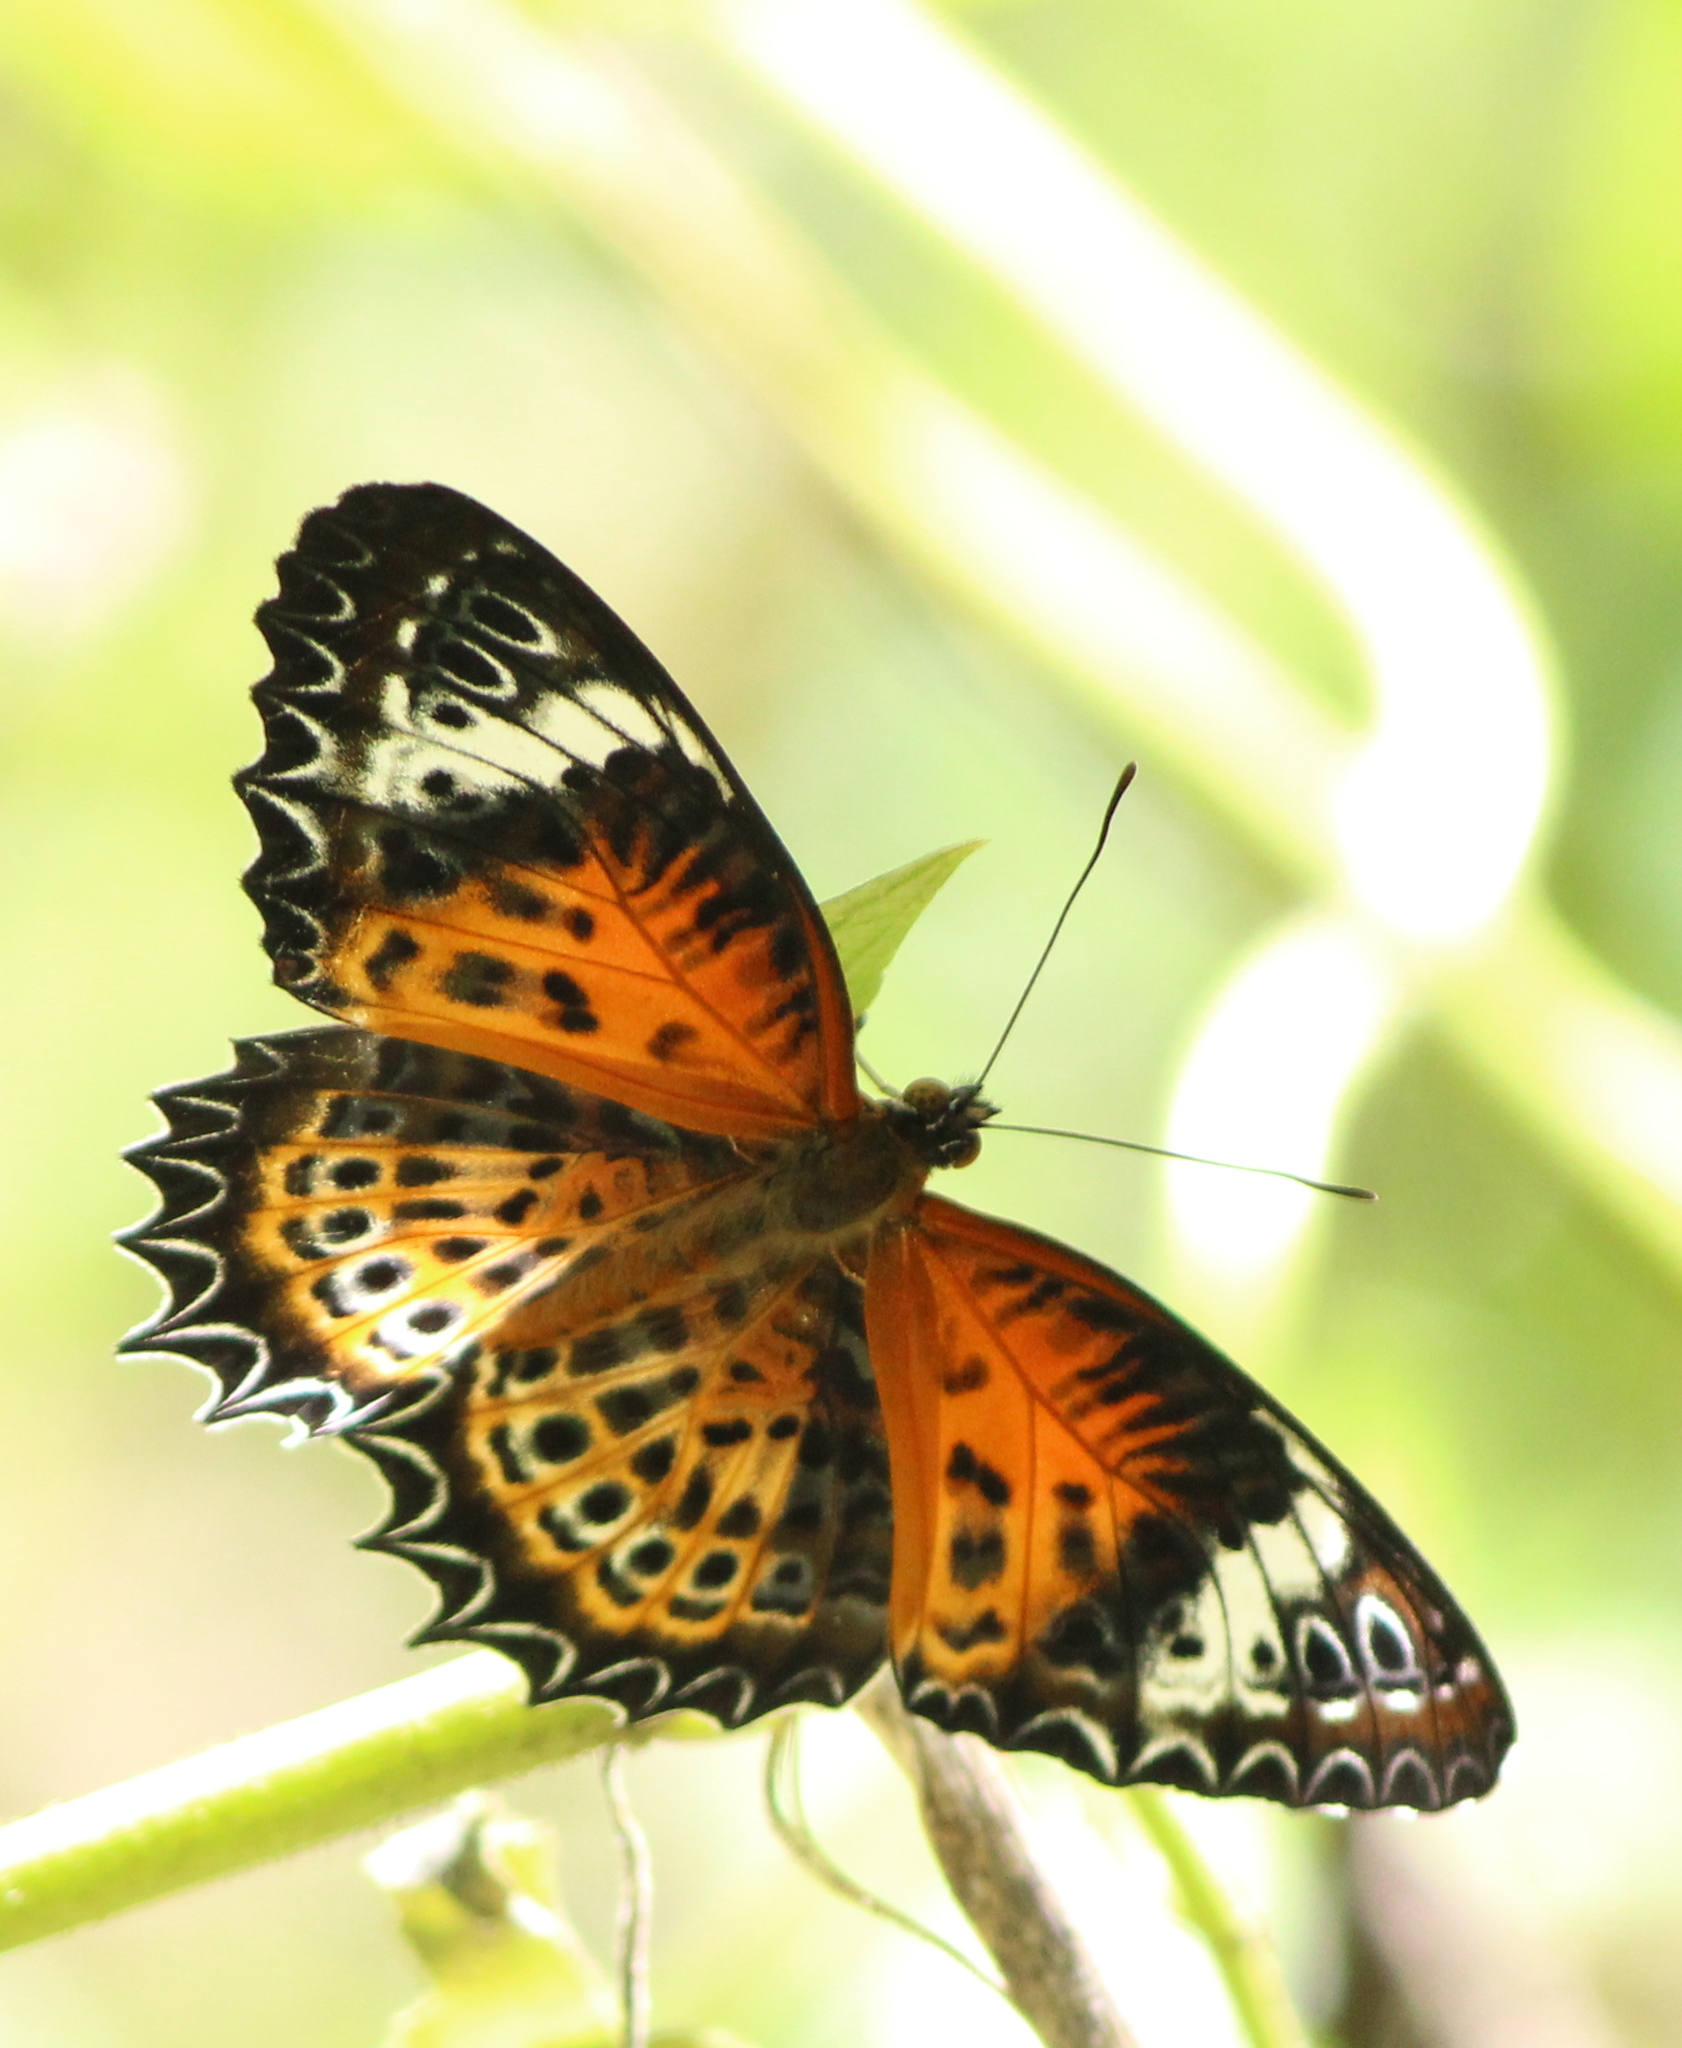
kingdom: Animalia
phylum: Arthropoda
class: Insecta
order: Lepidoptera
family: Nymphalidae
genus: Cethosia
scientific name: Cethosia
